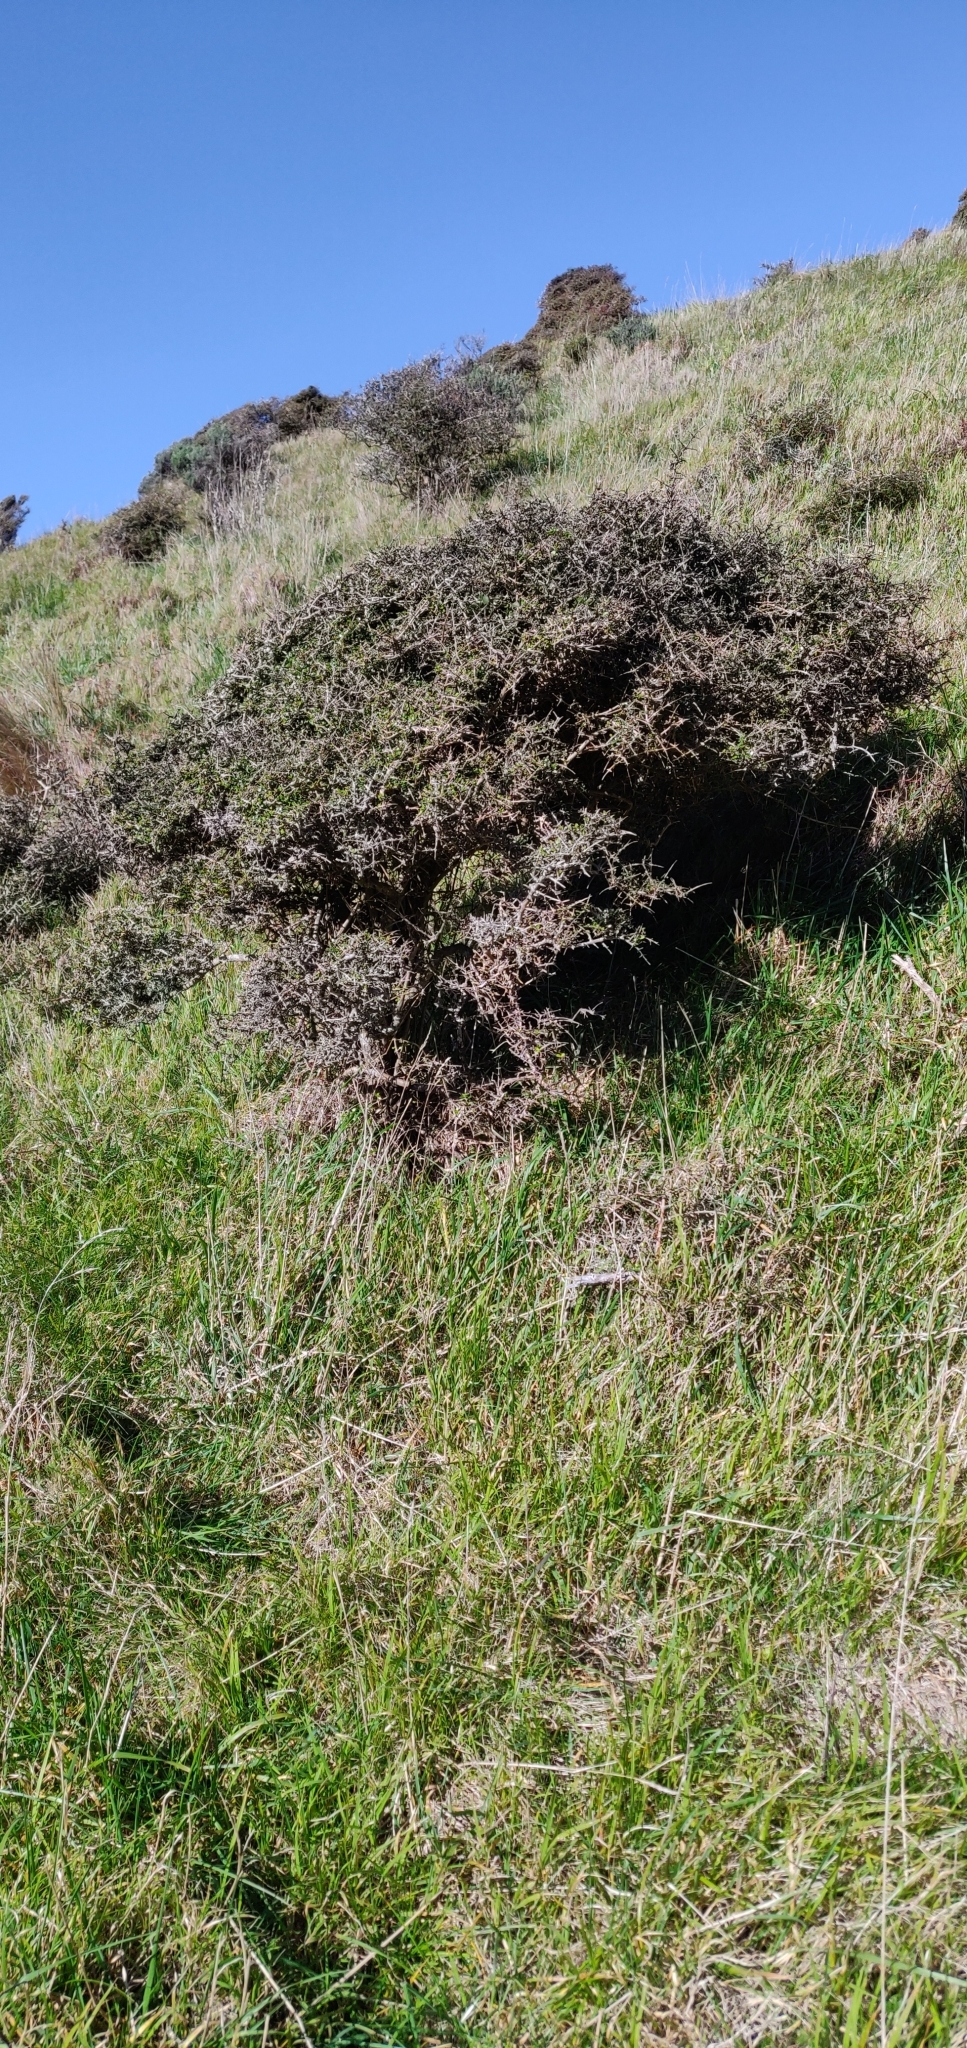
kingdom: Plantae
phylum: Tracheophyta
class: Magnoliopsida
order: Gentianales
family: Rubiaceae
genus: Coprosma
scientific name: Coprosma propinqua
